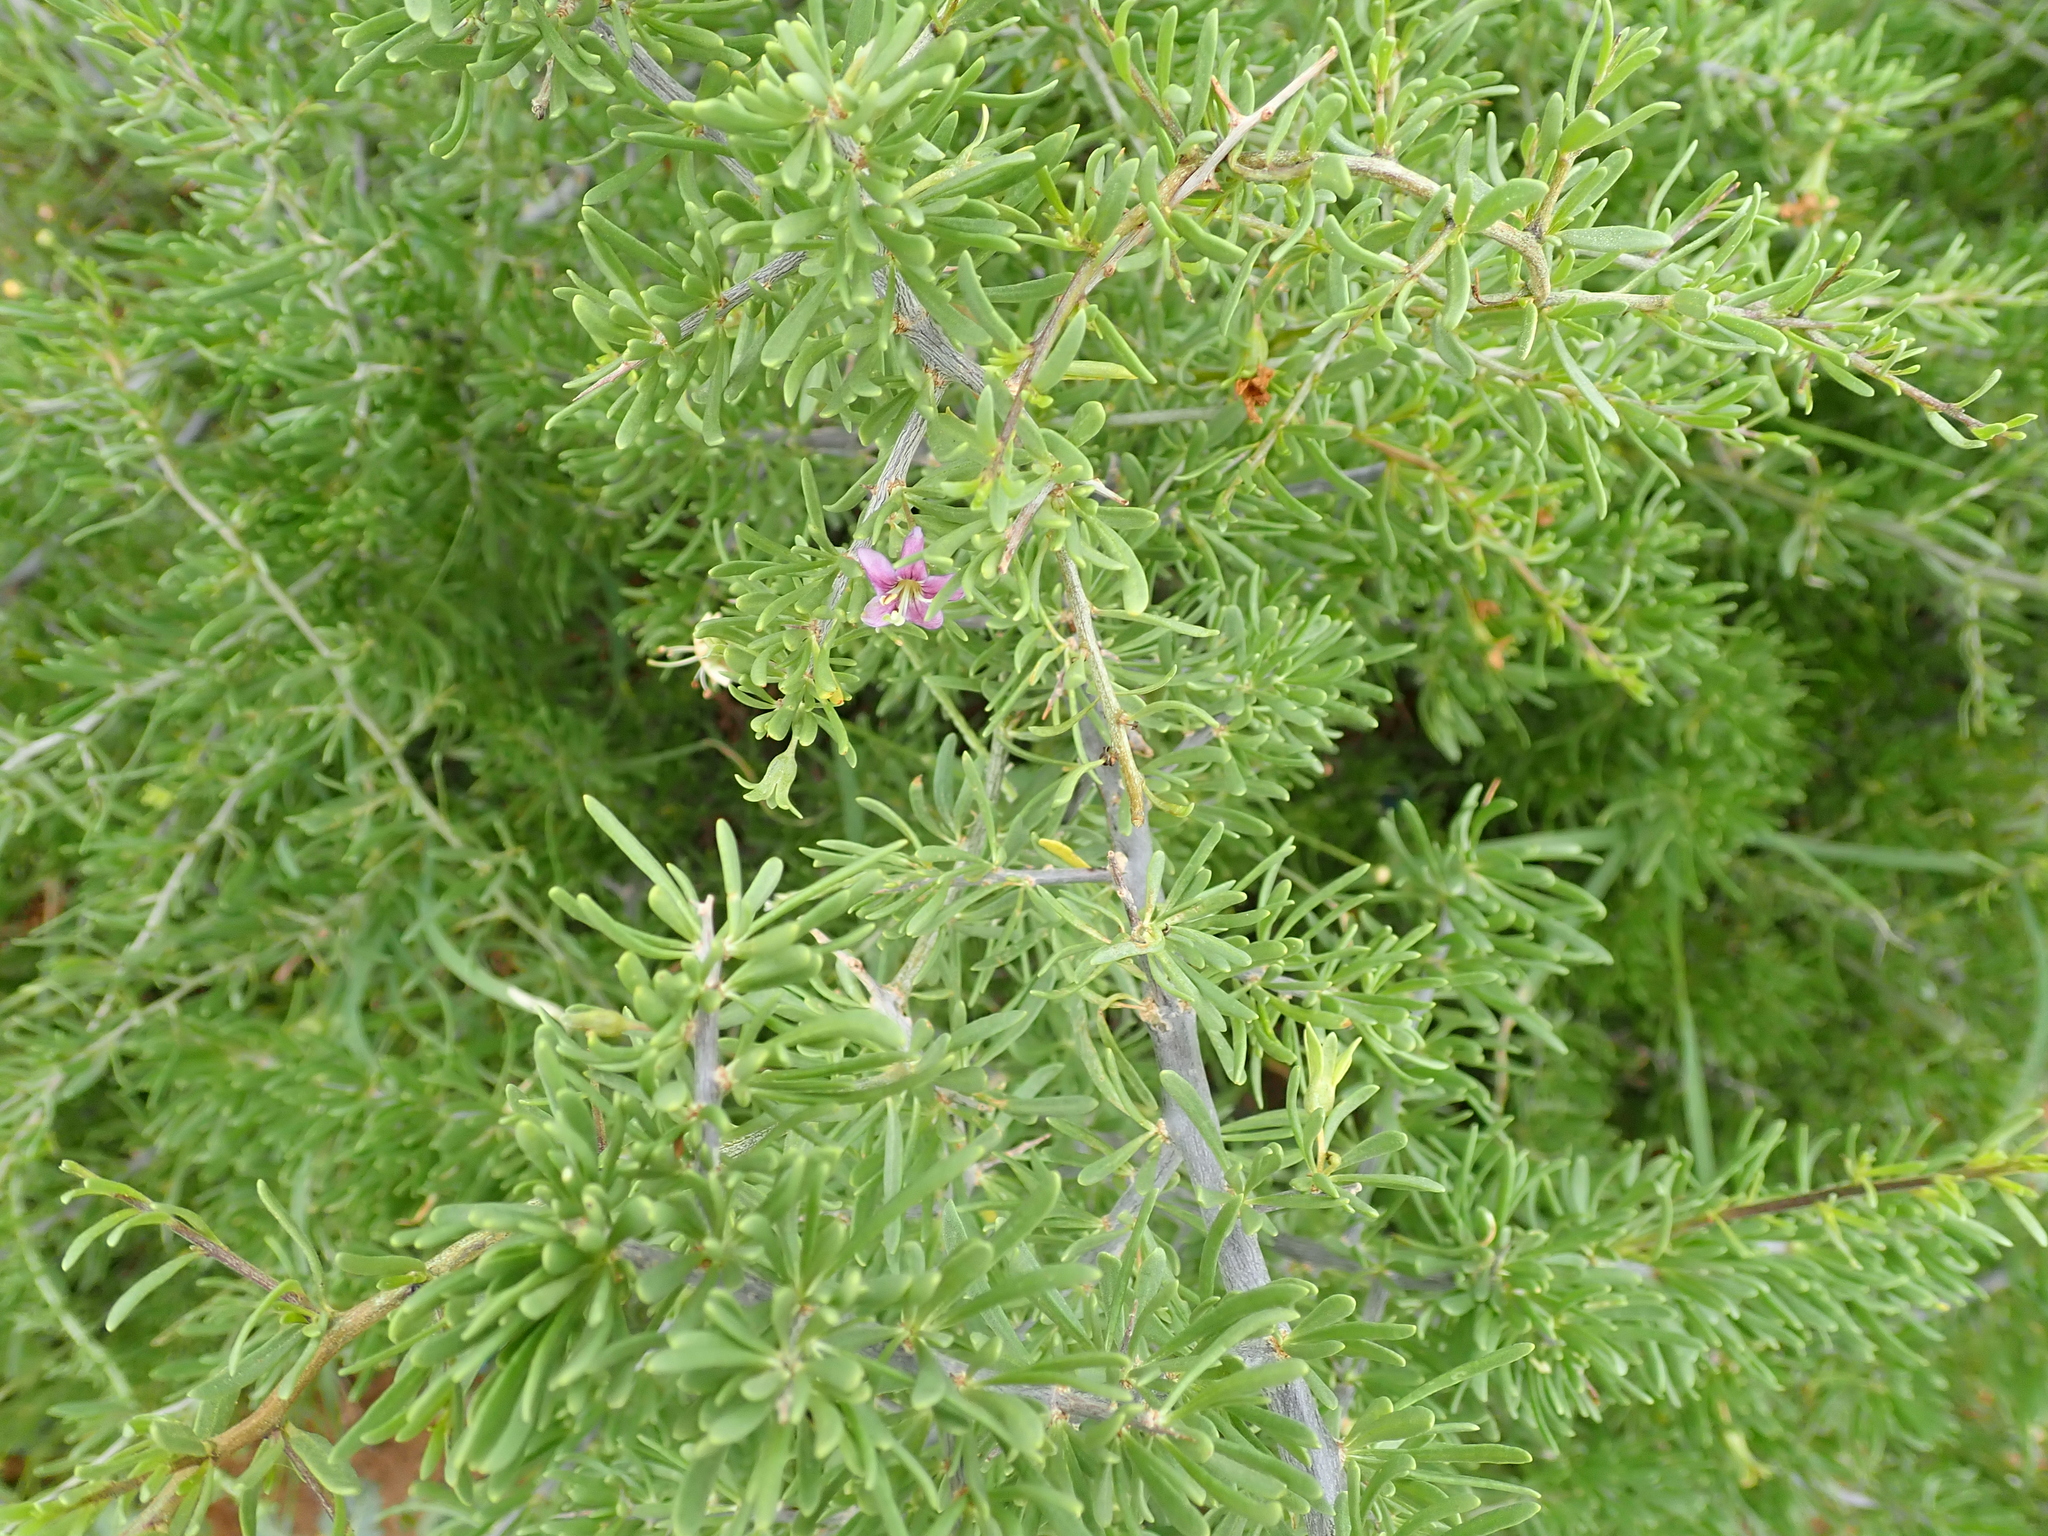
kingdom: Plantae
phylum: Tracheophyta
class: Magnoliopsida
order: Solanales
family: Solanaceae
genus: Lycium
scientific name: Lycium schizocalyx
